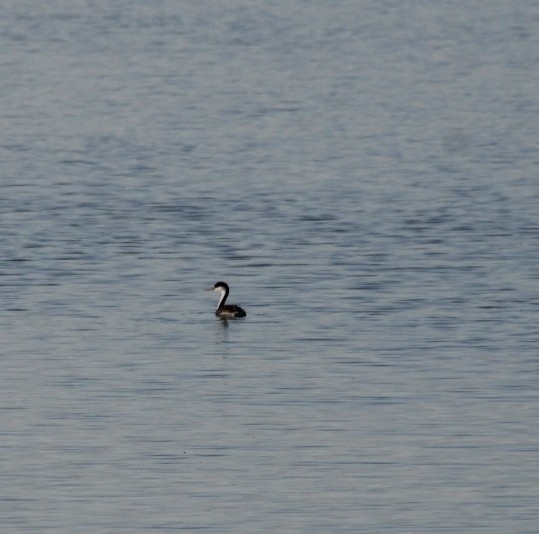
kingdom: Animalia
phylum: Chordata
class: Aves
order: Podicipediformes
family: Podicipedidae
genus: Aechmophorus
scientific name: Aechmophorus occidentalis
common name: Western grebe
